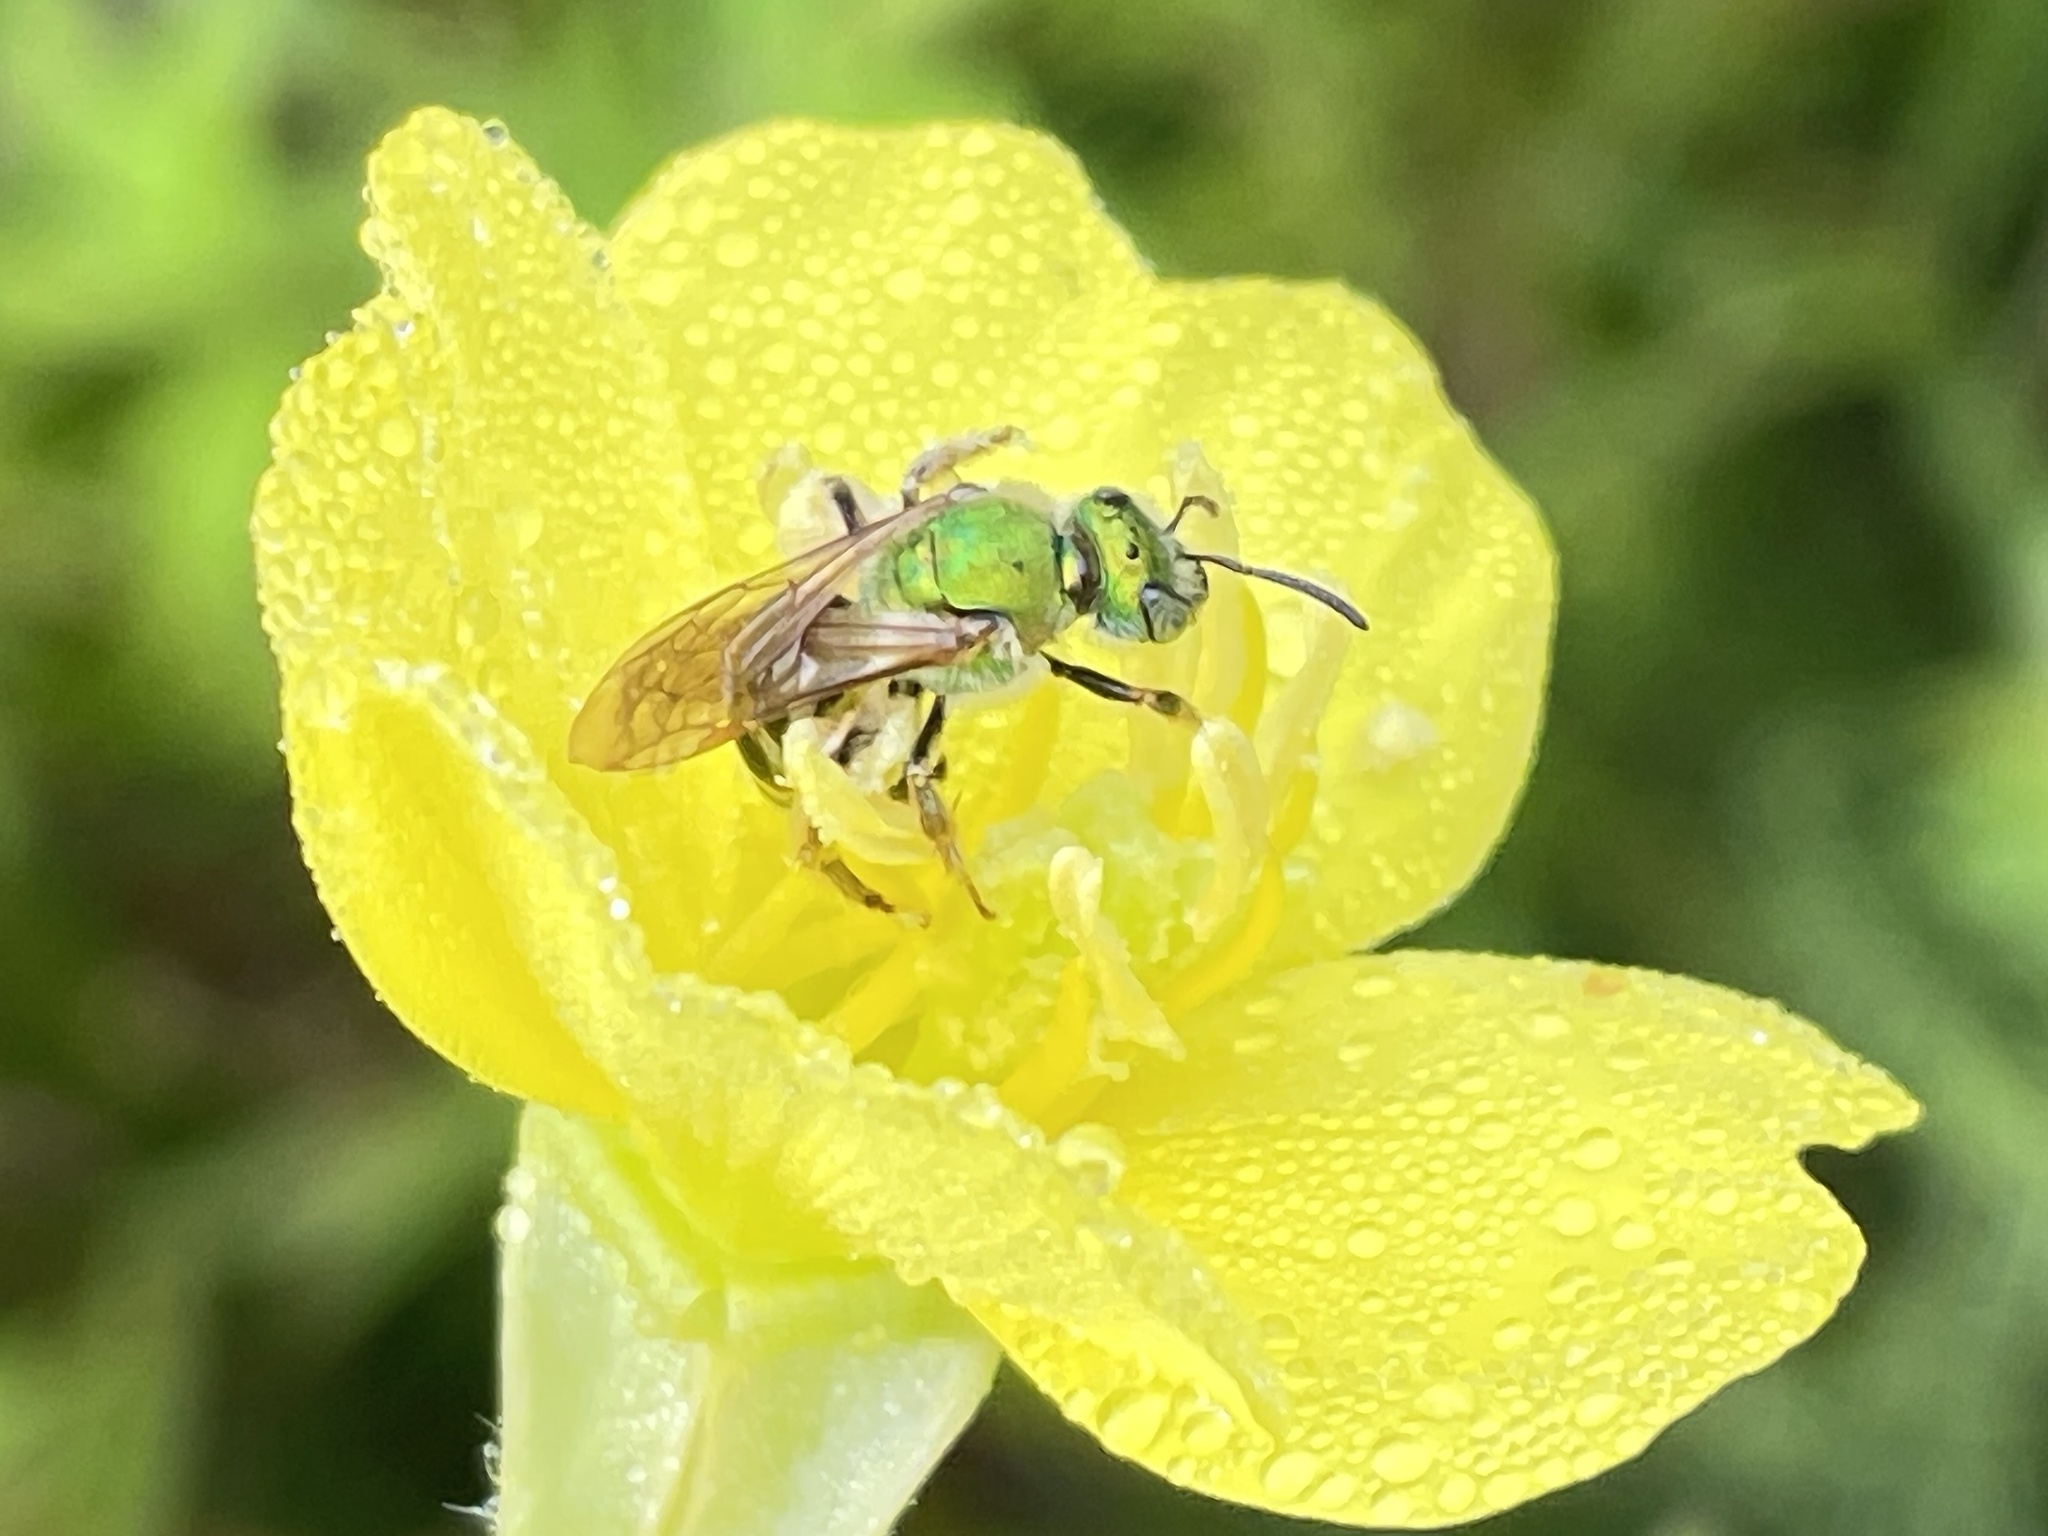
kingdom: Animalia
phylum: Arthropoda
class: Insecta
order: Hymenoptera
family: Halictidae
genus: Agapostemon
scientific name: Agapostemon virescens
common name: Bicolored striped sweat bee
